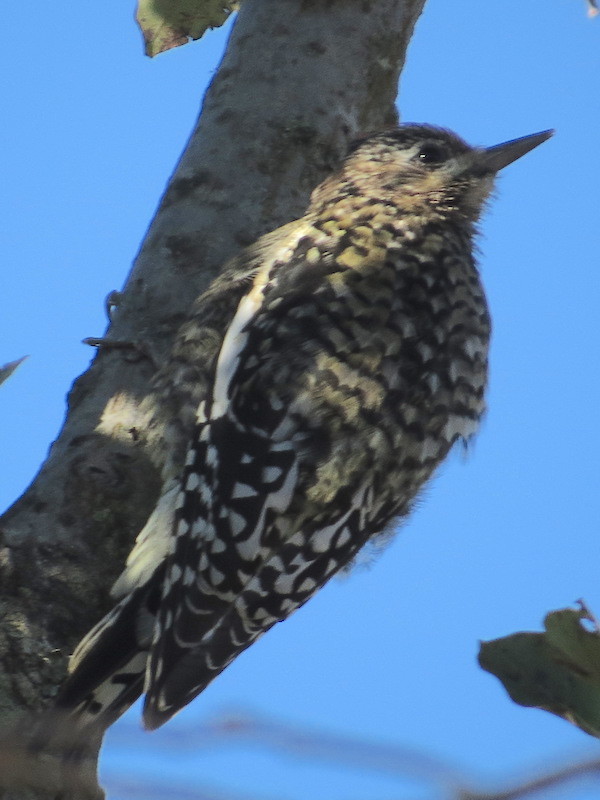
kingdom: Animalia
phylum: Chordata
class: Aves
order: Piciformes
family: Picidae
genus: Sphyrapicus
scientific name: Sphyrapicus varius
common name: Yellow-bellied sapsucker
